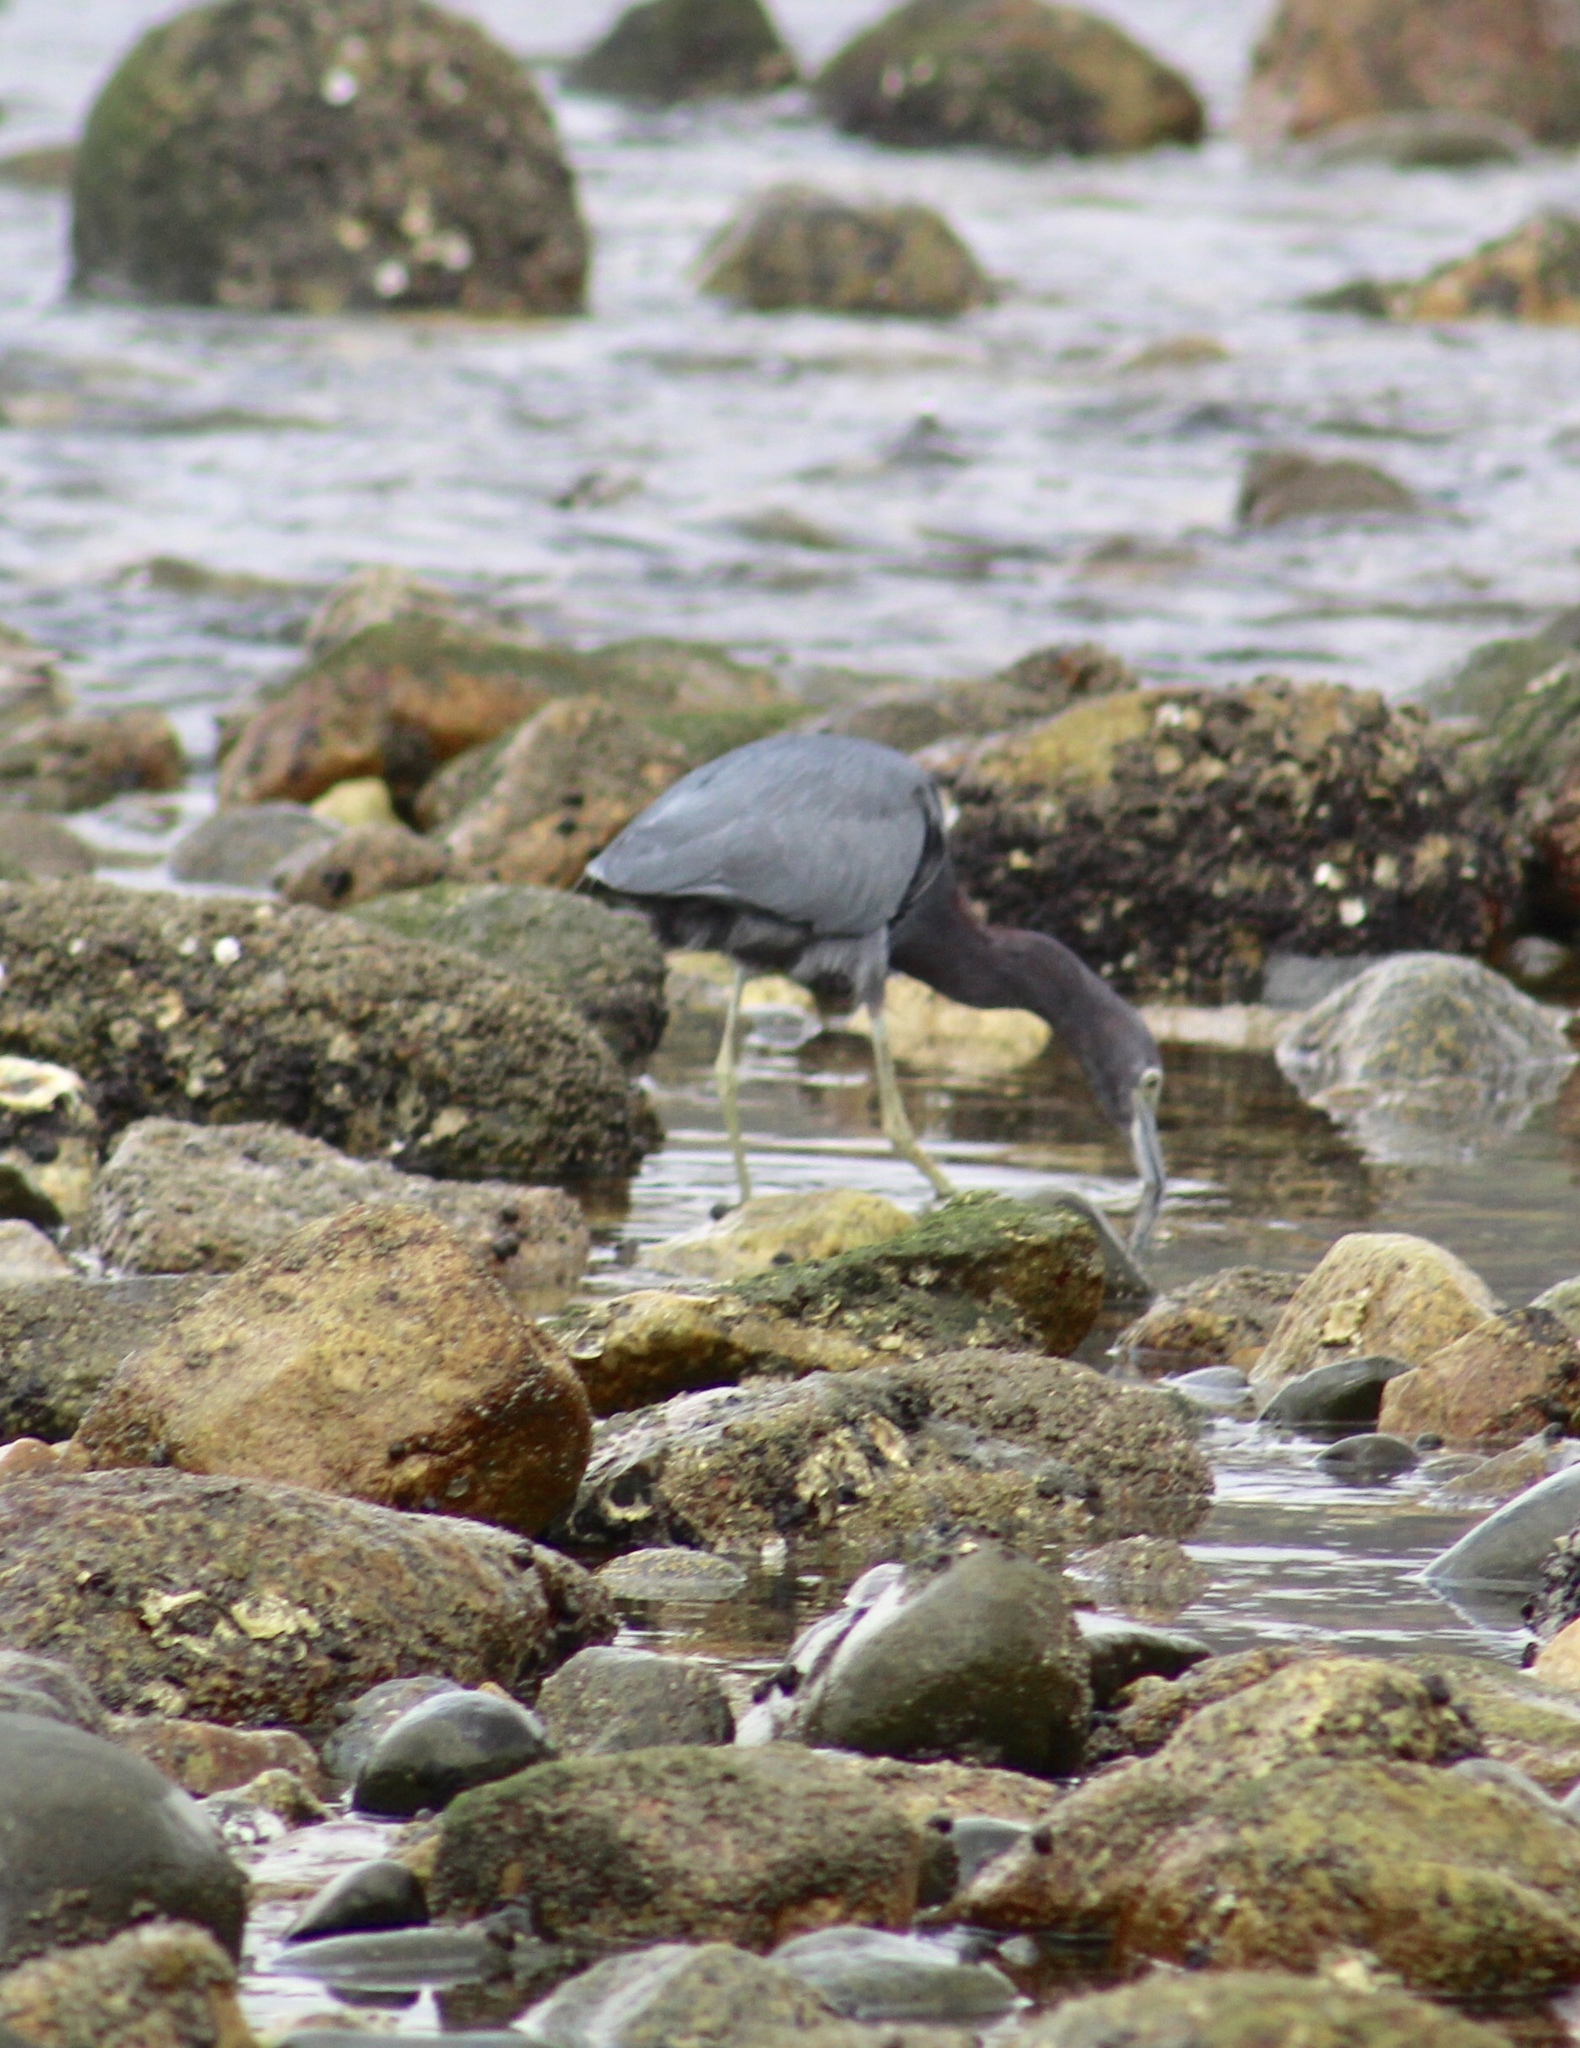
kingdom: Animalia
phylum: Chordata
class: Aves
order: Pelecaniformes
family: Ardeidae
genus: Egretta
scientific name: Egretta caerulea
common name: Little blue heron
